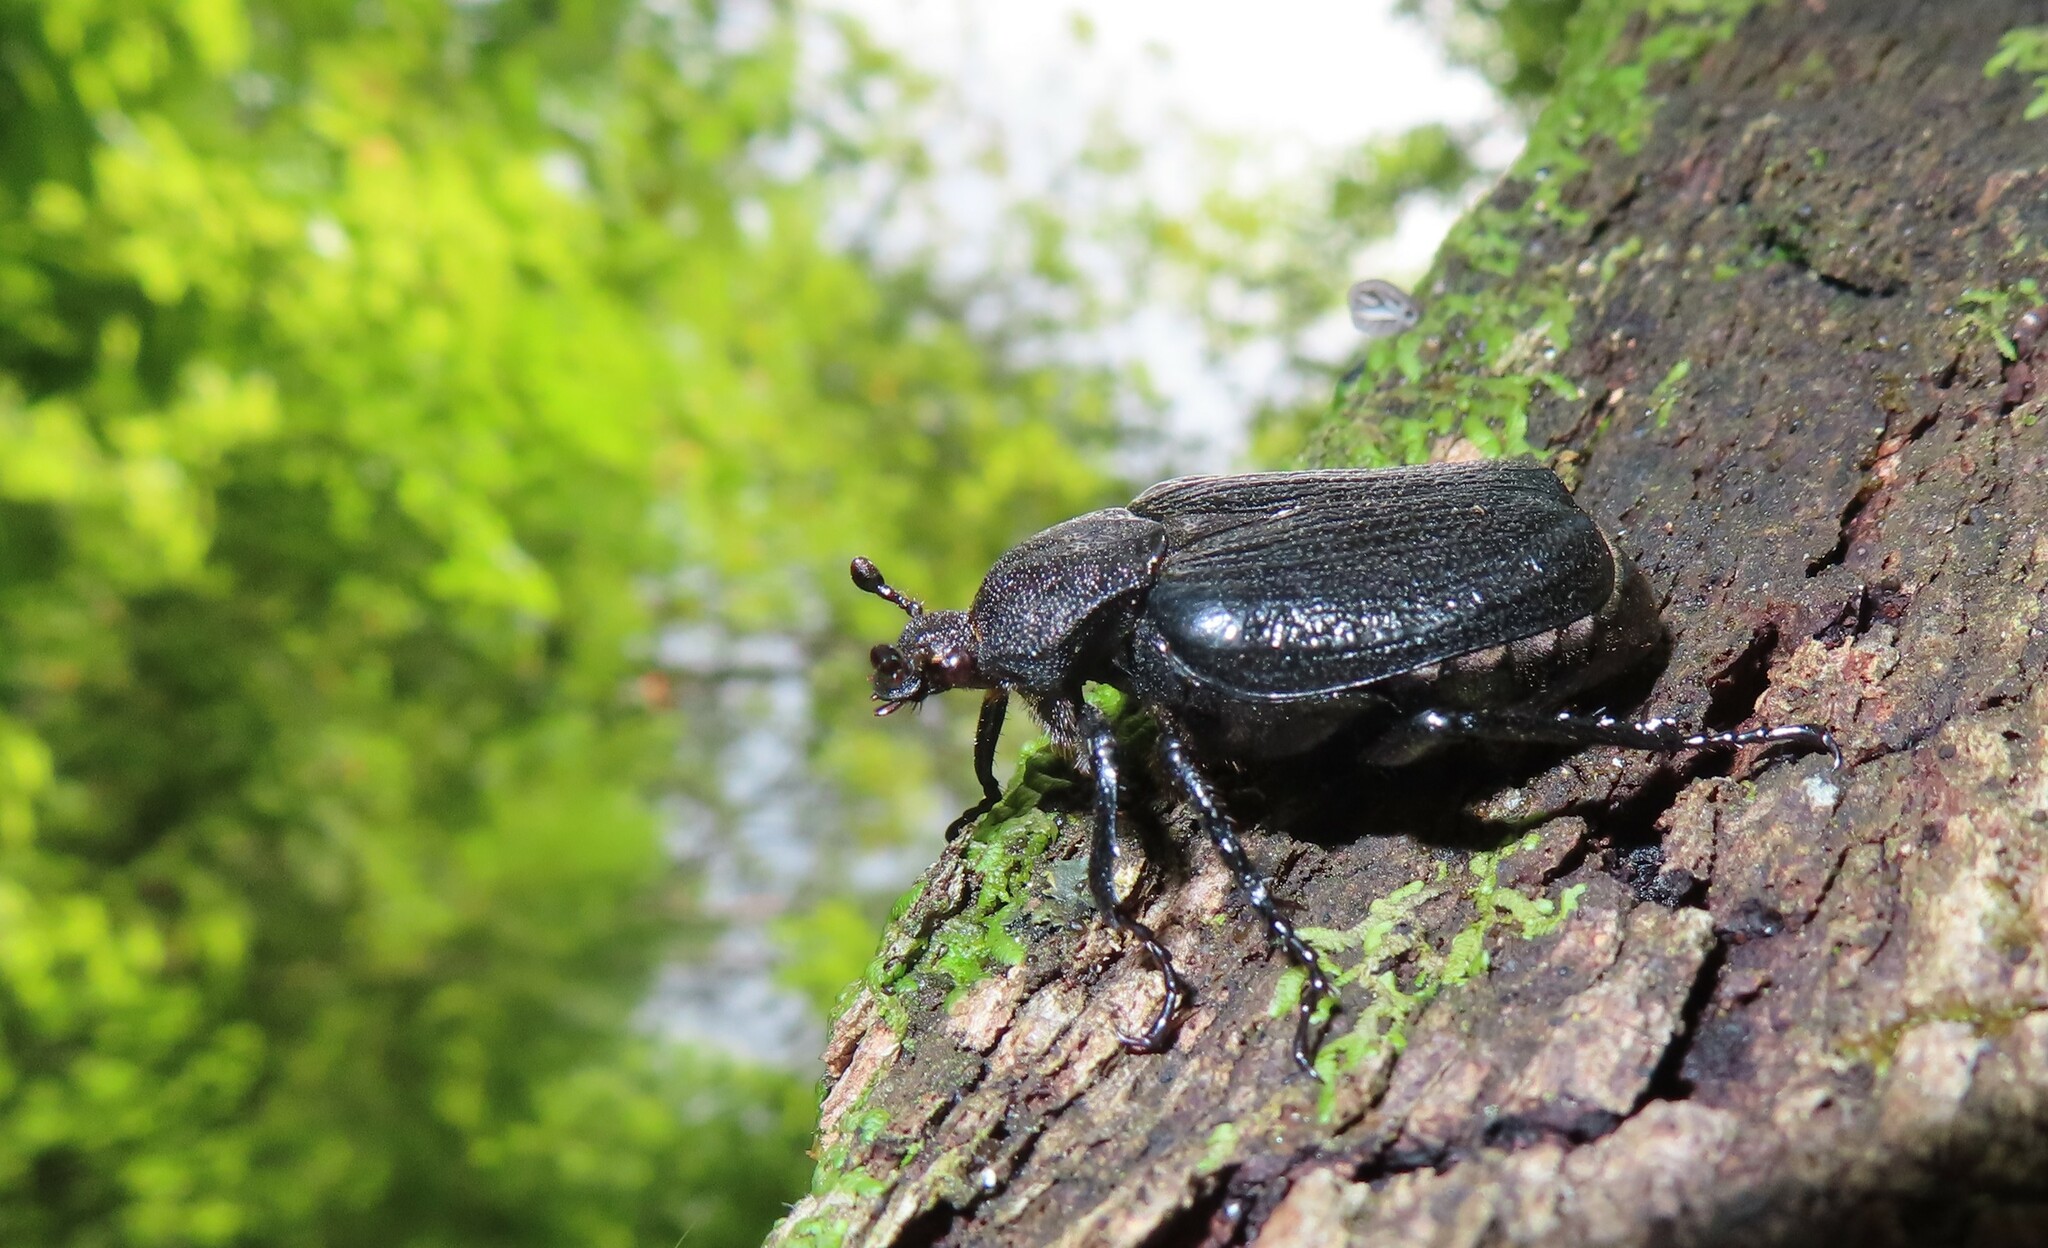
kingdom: Animalia
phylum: Arthropoda
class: Insecta
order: Coleoptera
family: Scarabaeidae
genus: Osmoderma
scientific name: Osmoderma scabra
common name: Rough hermit beetle
